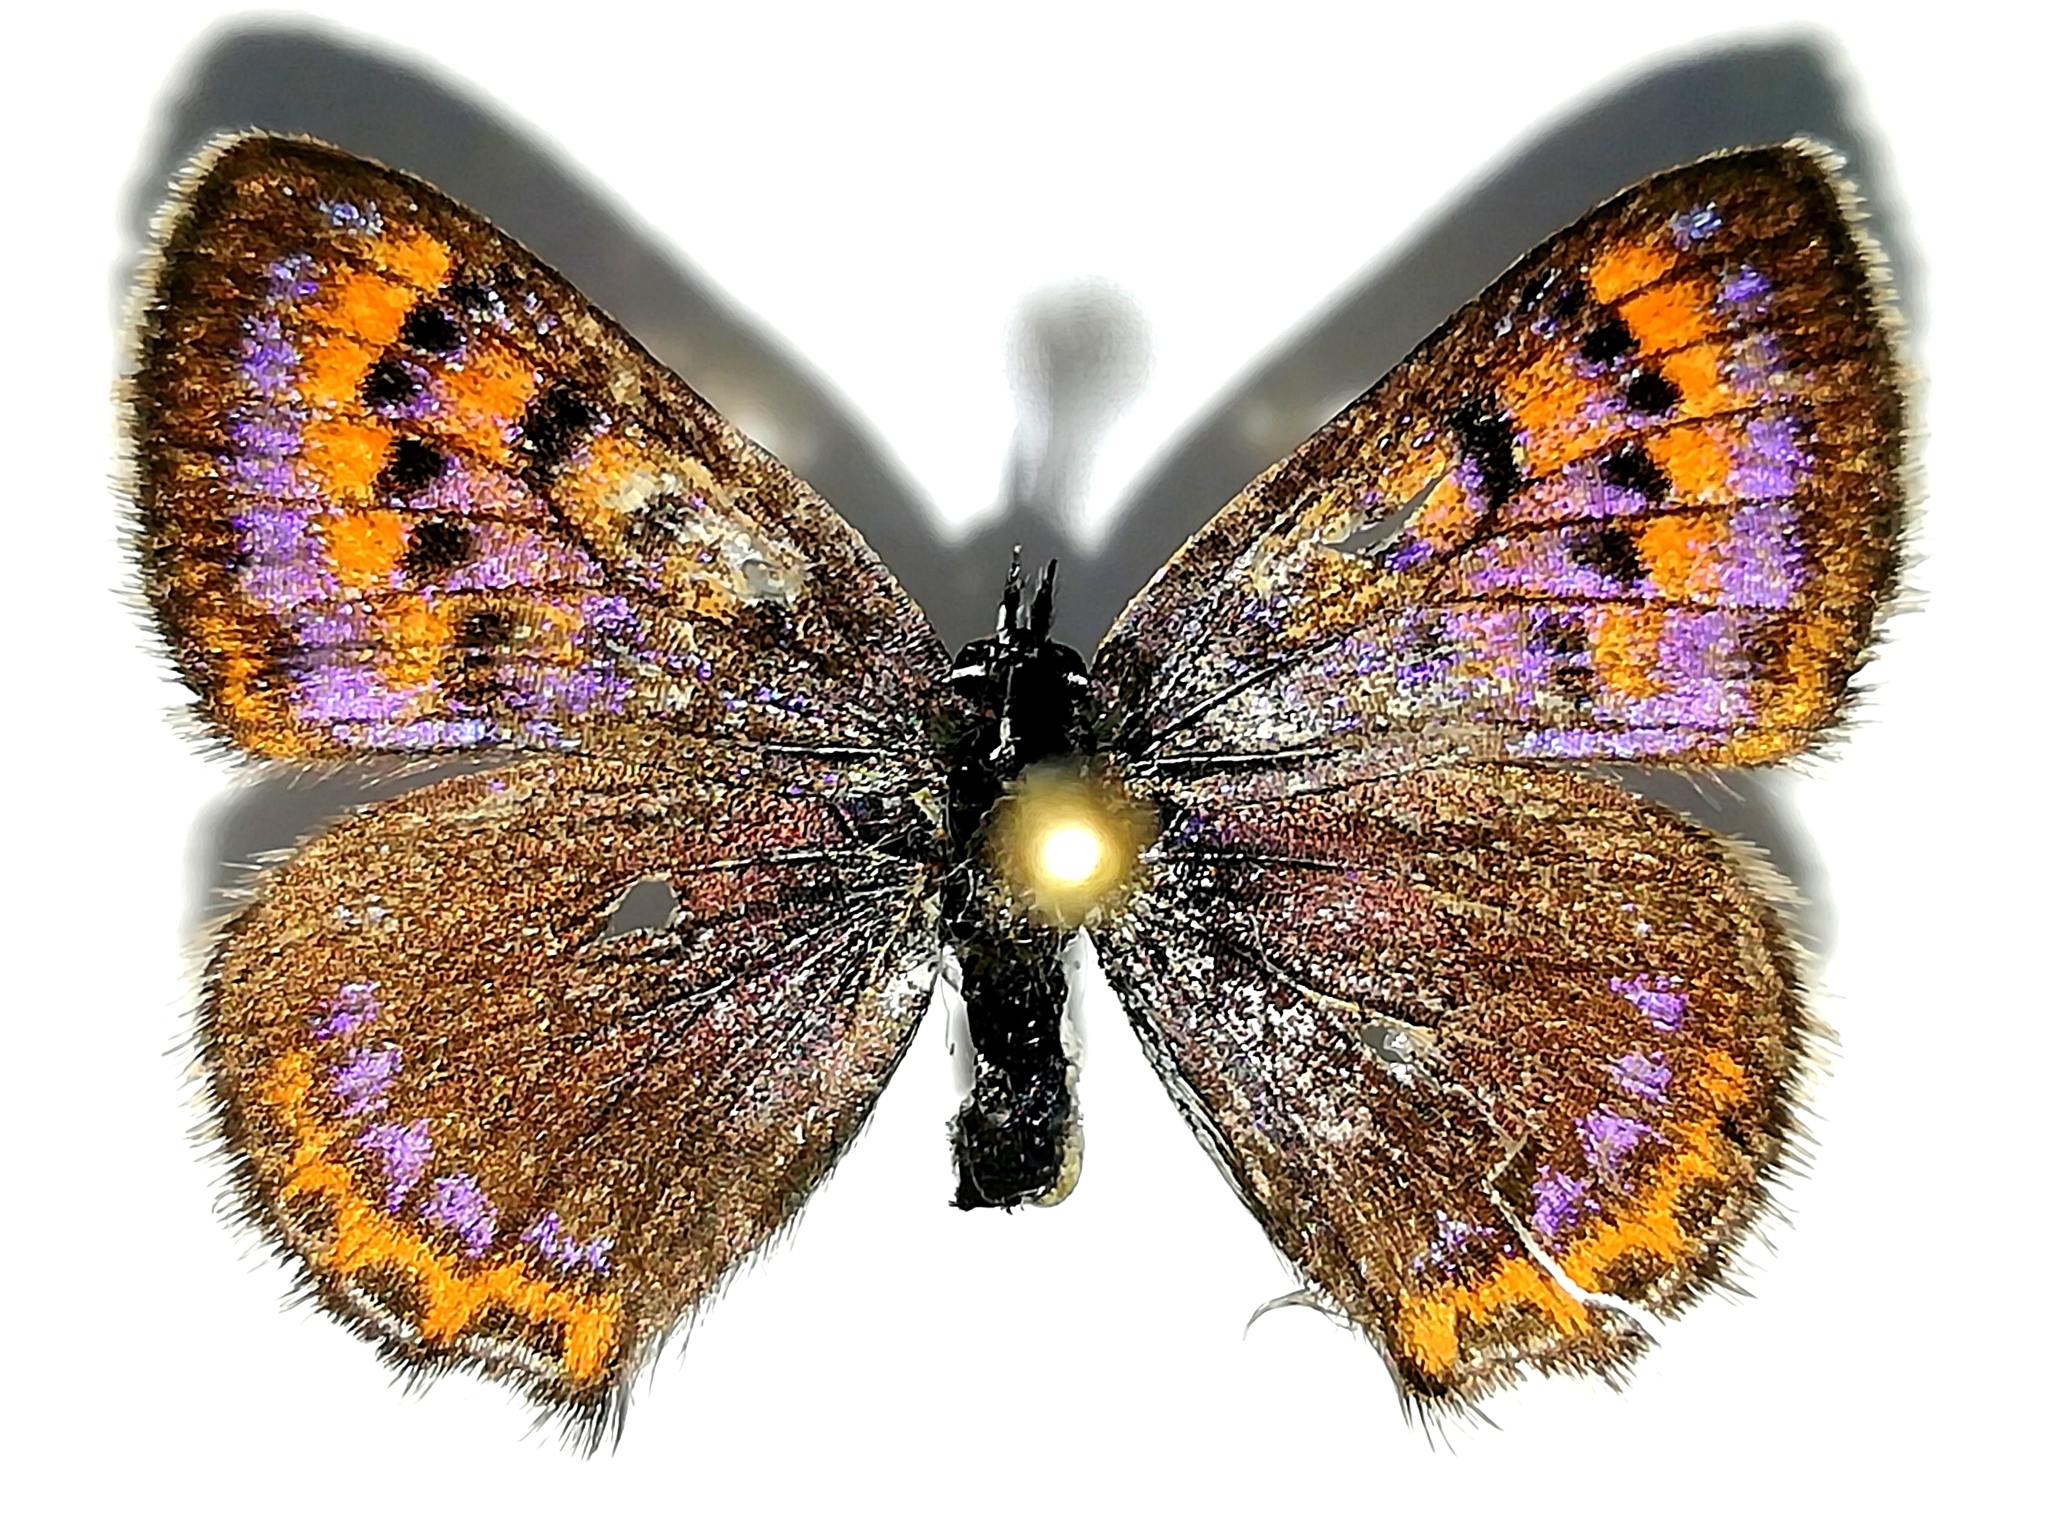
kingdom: Animalia
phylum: Arthropoda
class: Insecta
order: Lepidoptera
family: Lycaenidae
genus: Helleia
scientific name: Helleia helle
